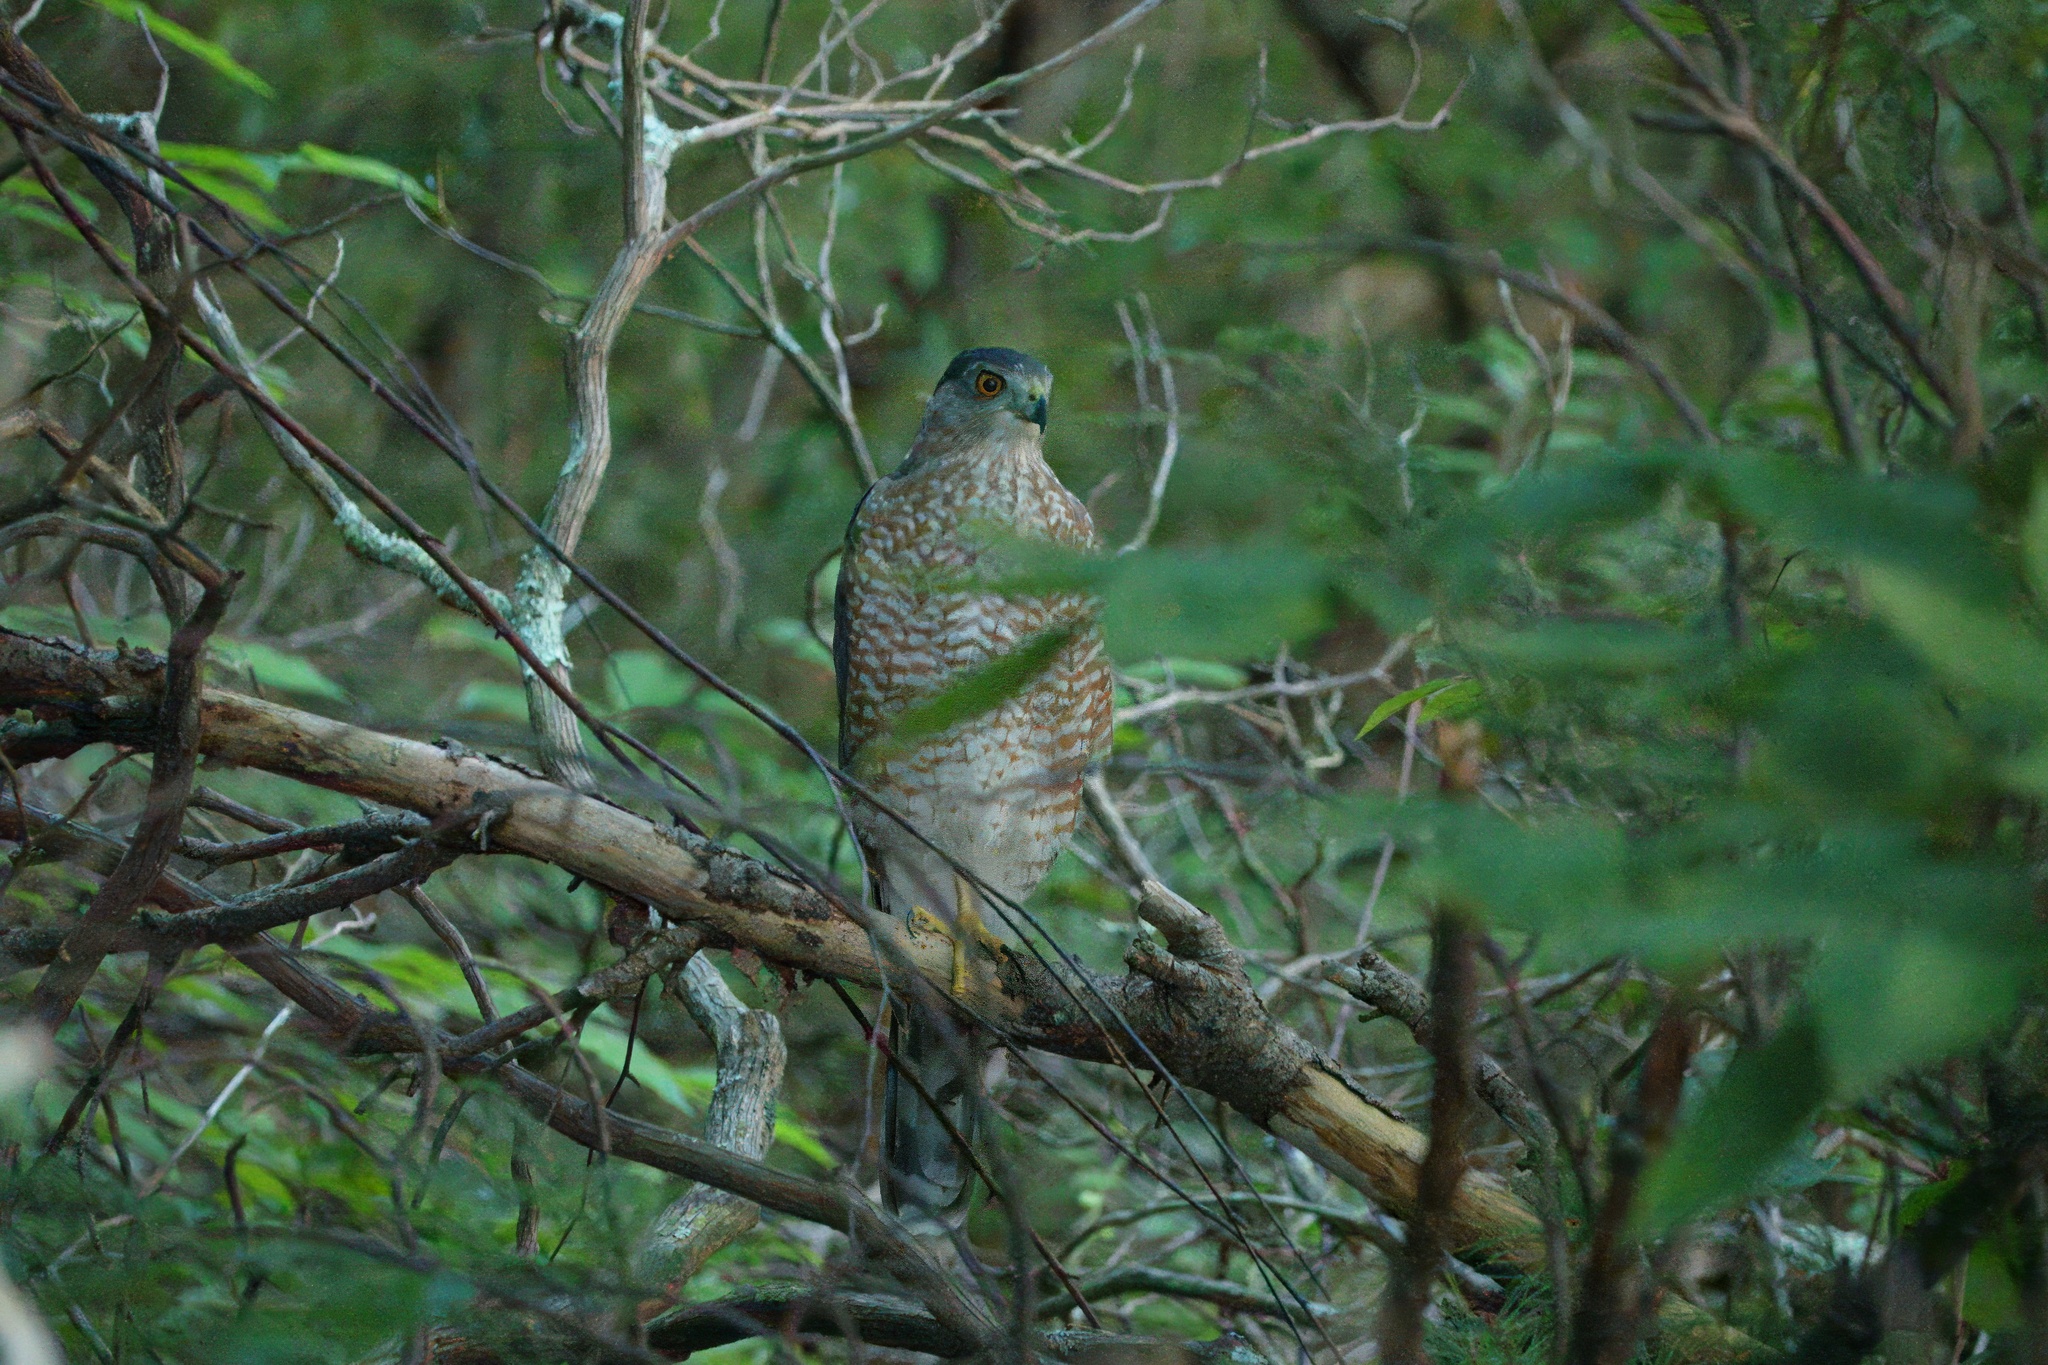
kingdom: Animalia
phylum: Chordata
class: Aves
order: Accipitriformes
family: Accipitridae
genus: Accipiter
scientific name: Accipiter cooperii
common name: Cooper's hawk
